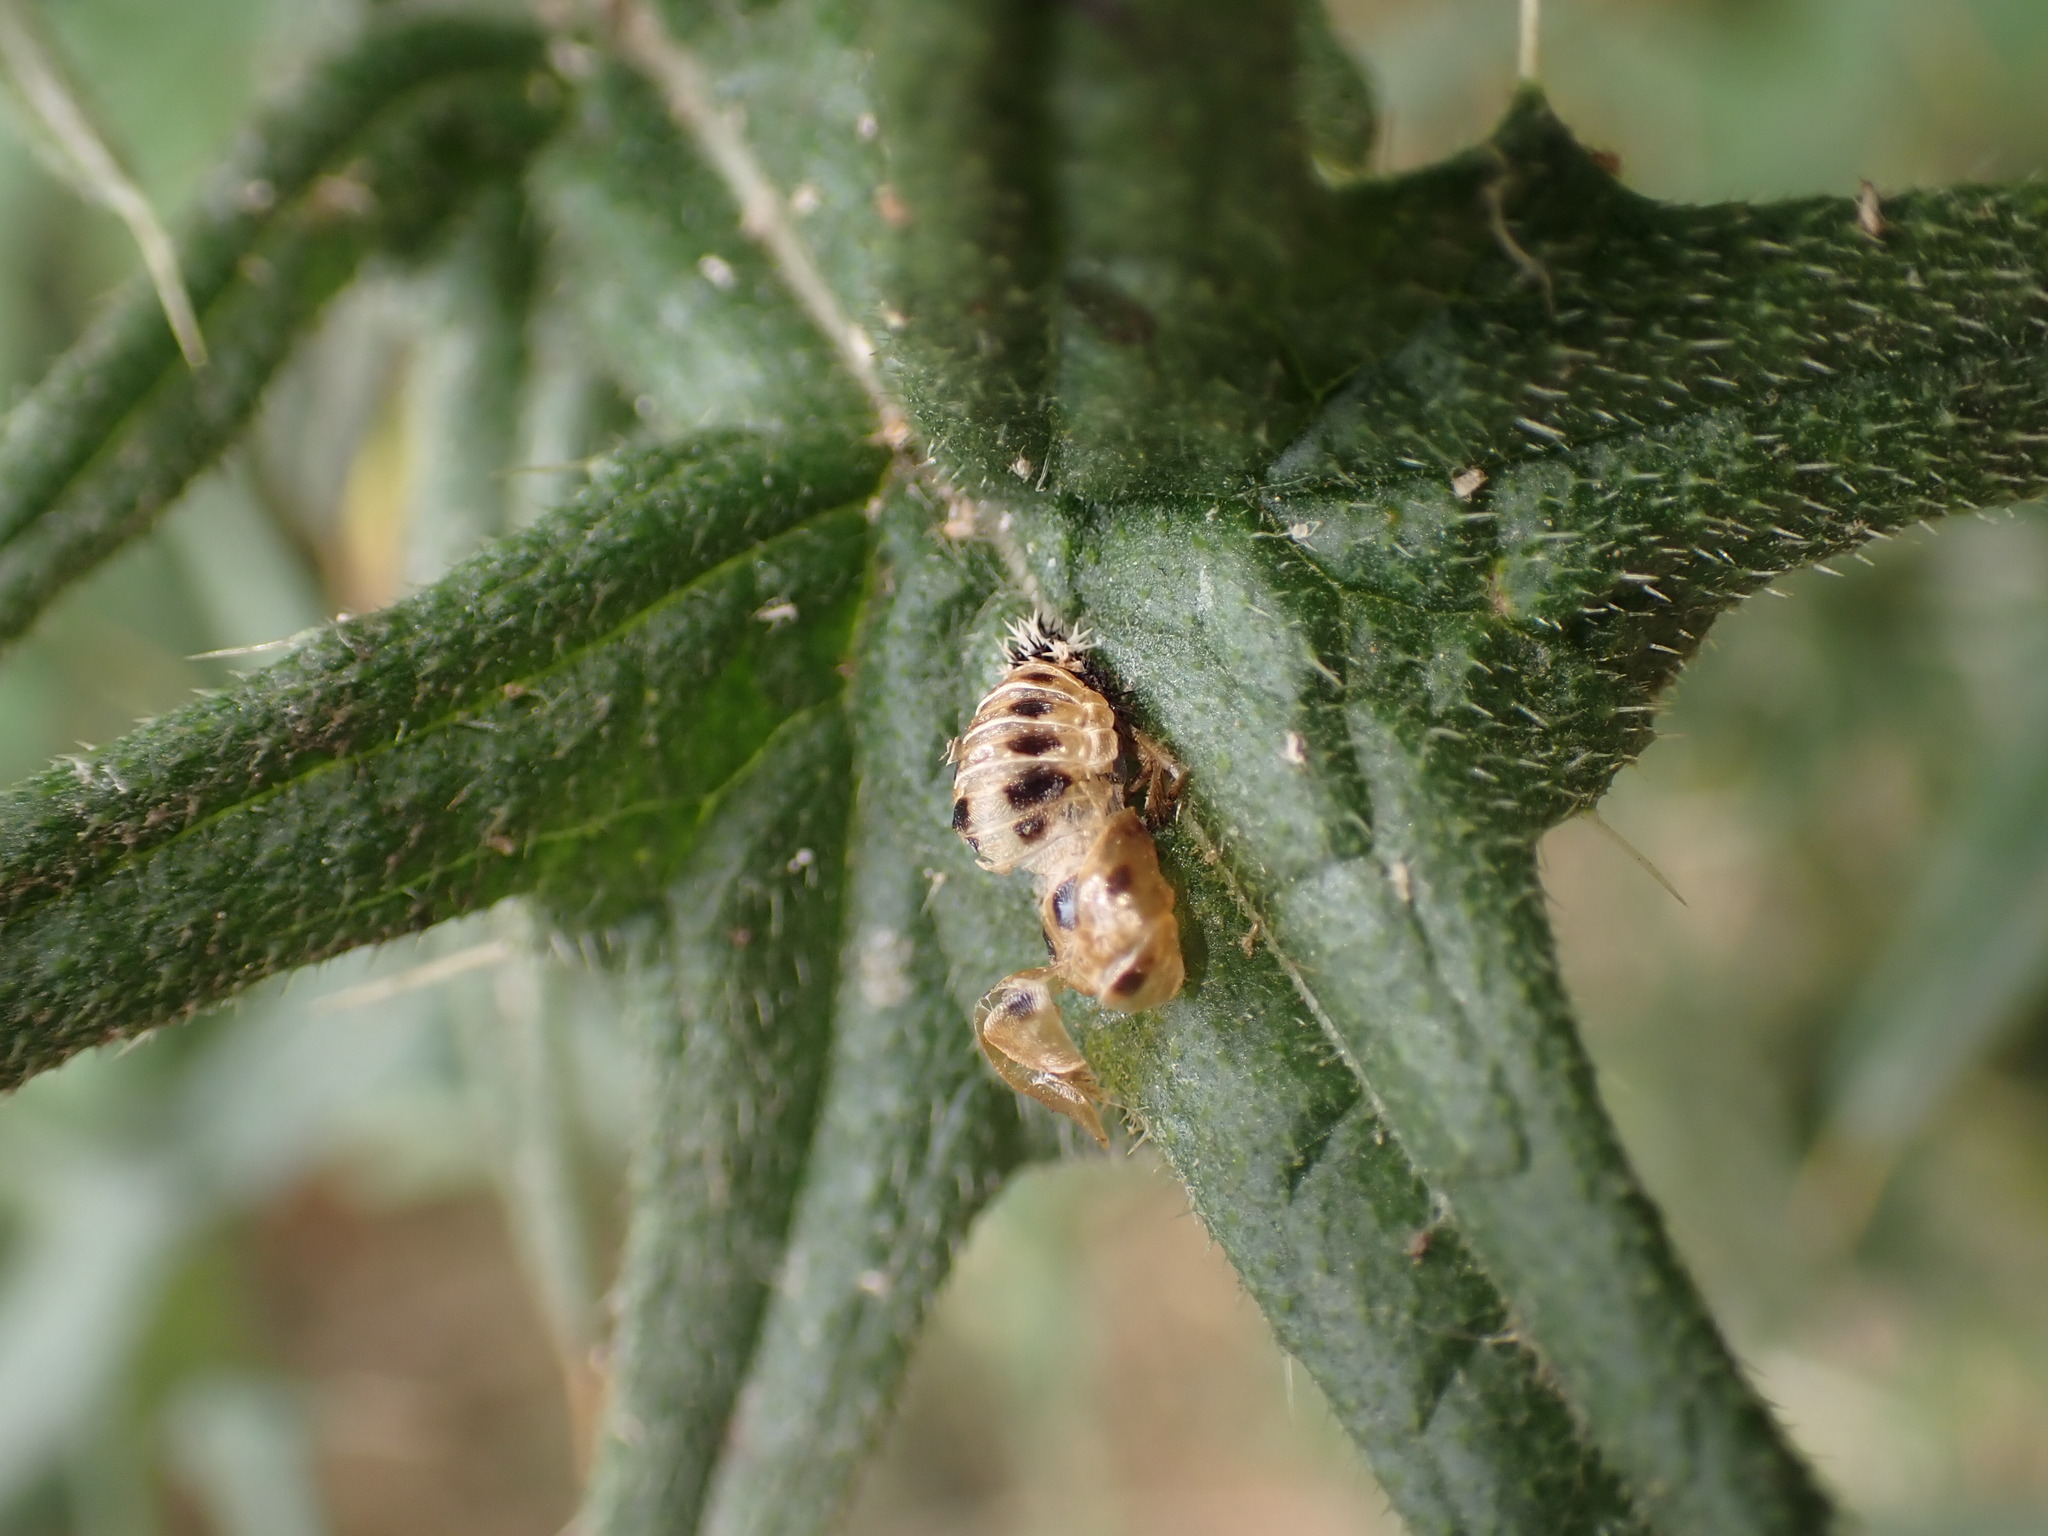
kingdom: Animalia
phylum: Arthropoda
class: Insecta
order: Coleoptera
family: Coccinellidae
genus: Harmonia
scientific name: Harmonia axyridis
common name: Harlequin ladybird
